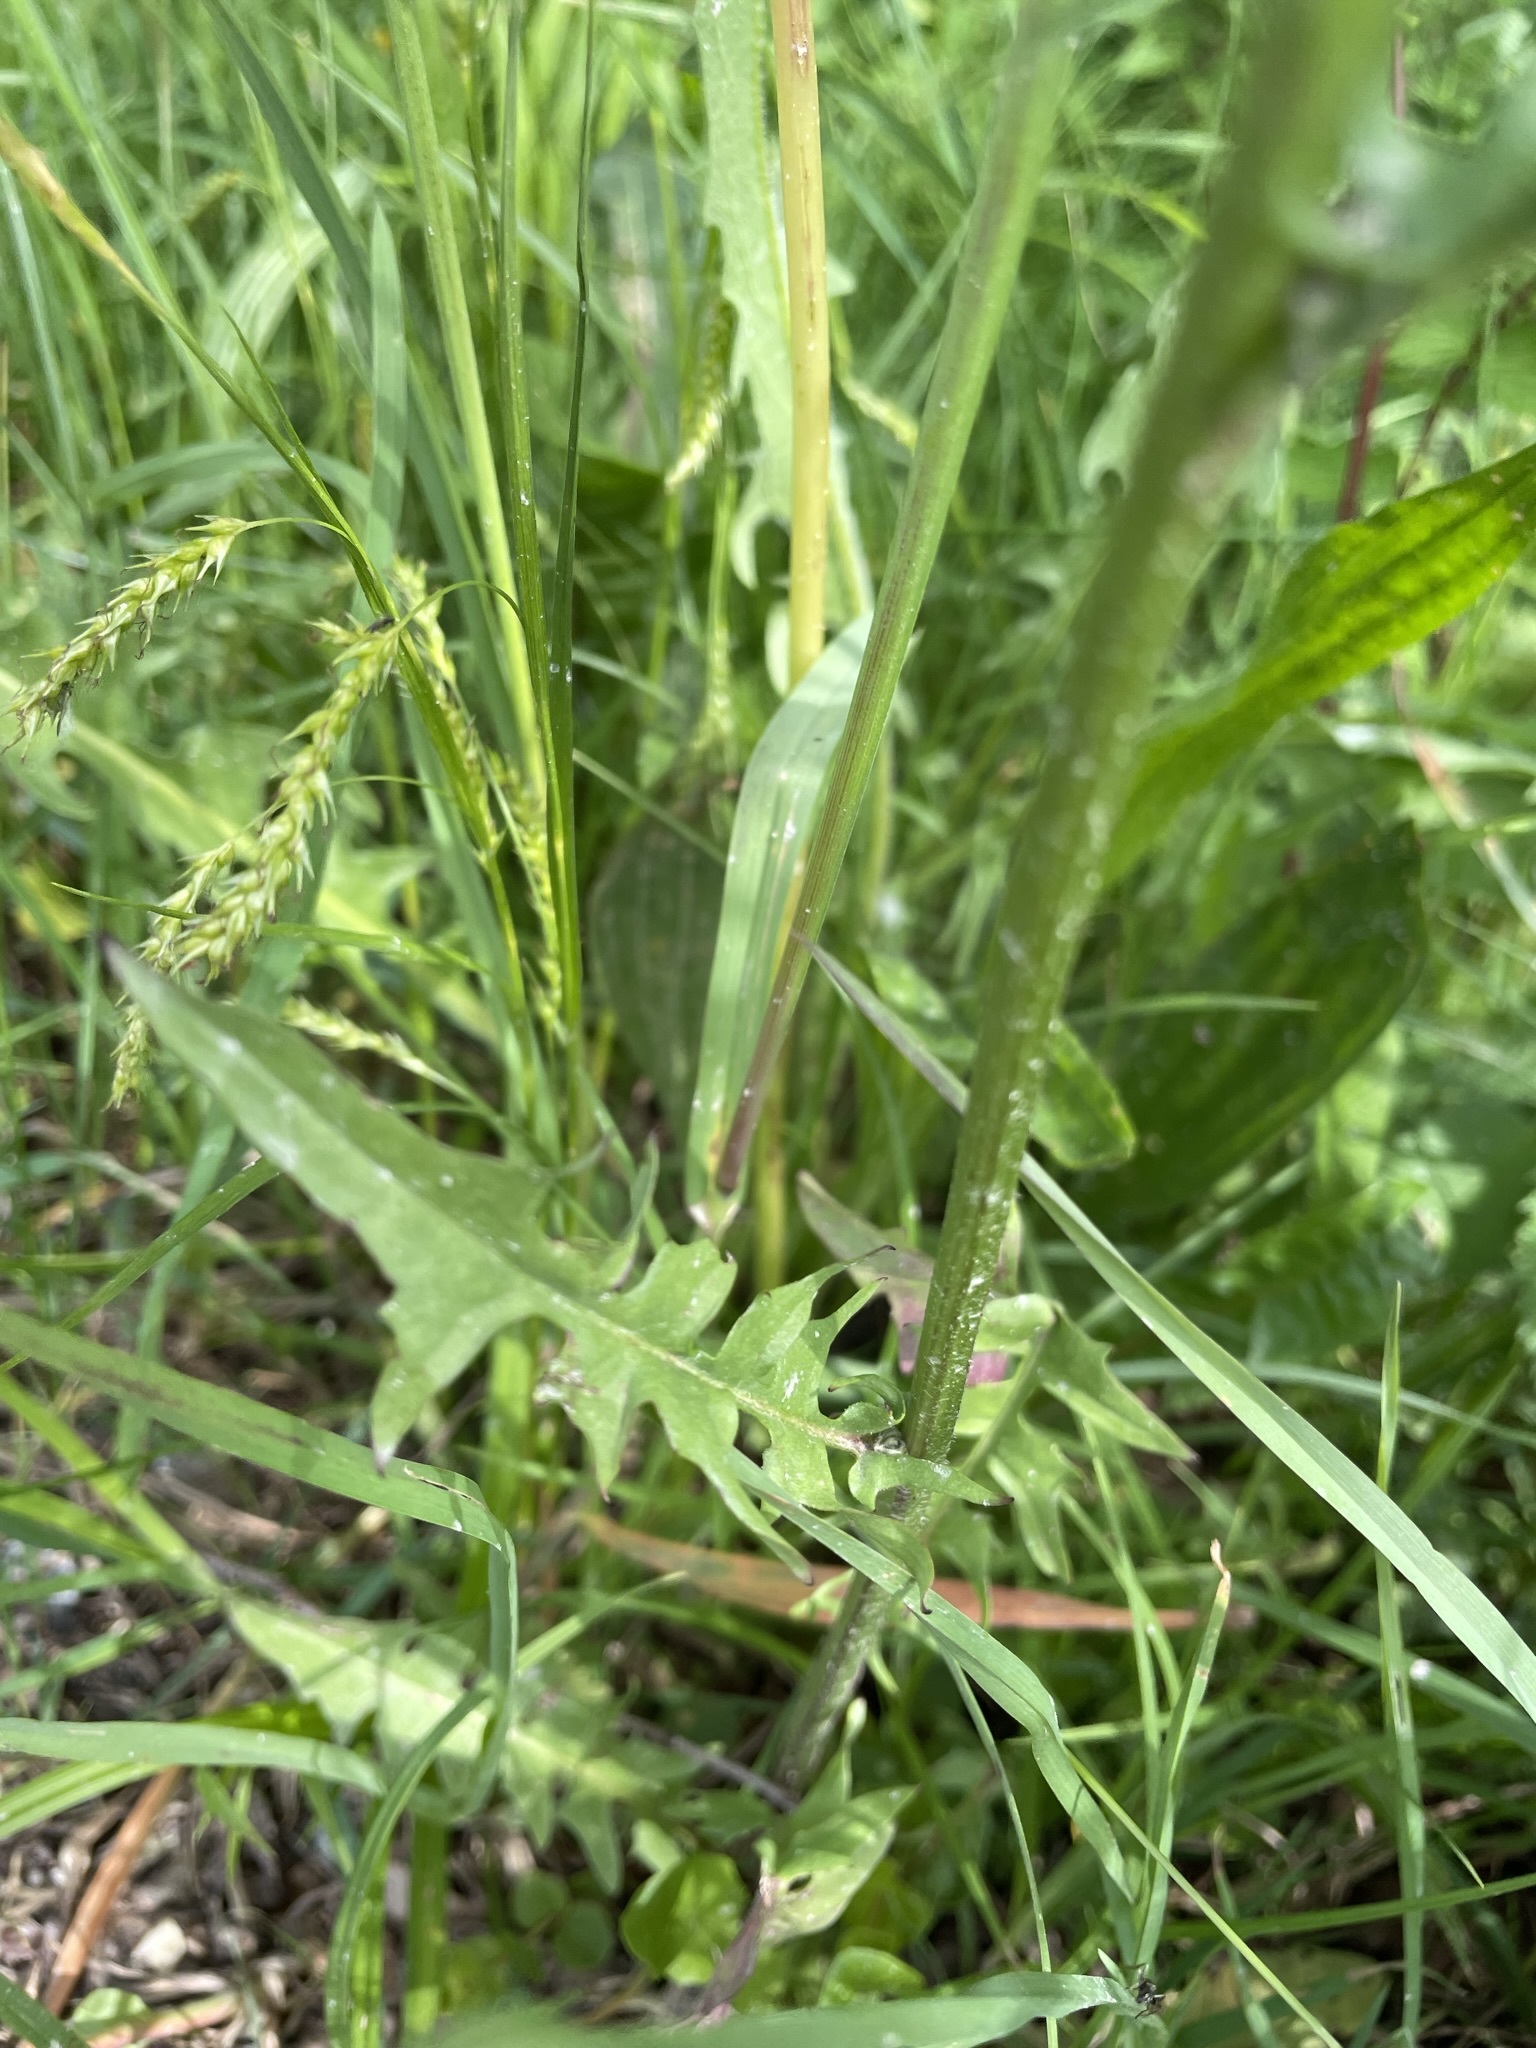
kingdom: Plantae
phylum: Tracheophyta
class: Magnoliopsida
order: Asterales
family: Asteraceae
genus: Crepis
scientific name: Crepis biennis
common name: Rough hawk's-beard
